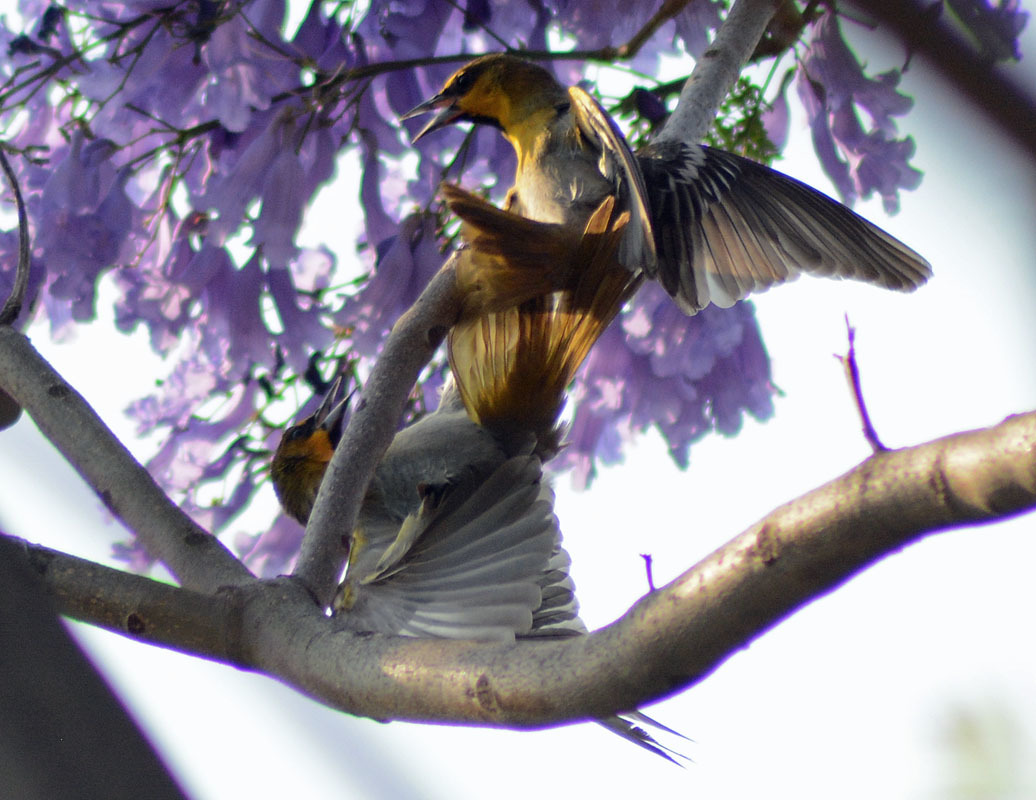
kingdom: Animalia
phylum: Chordata
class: Aves
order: Passeriformes
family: Icteridae
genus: Icterus
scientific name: Icterus abeillei
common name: Black-backed oriole
